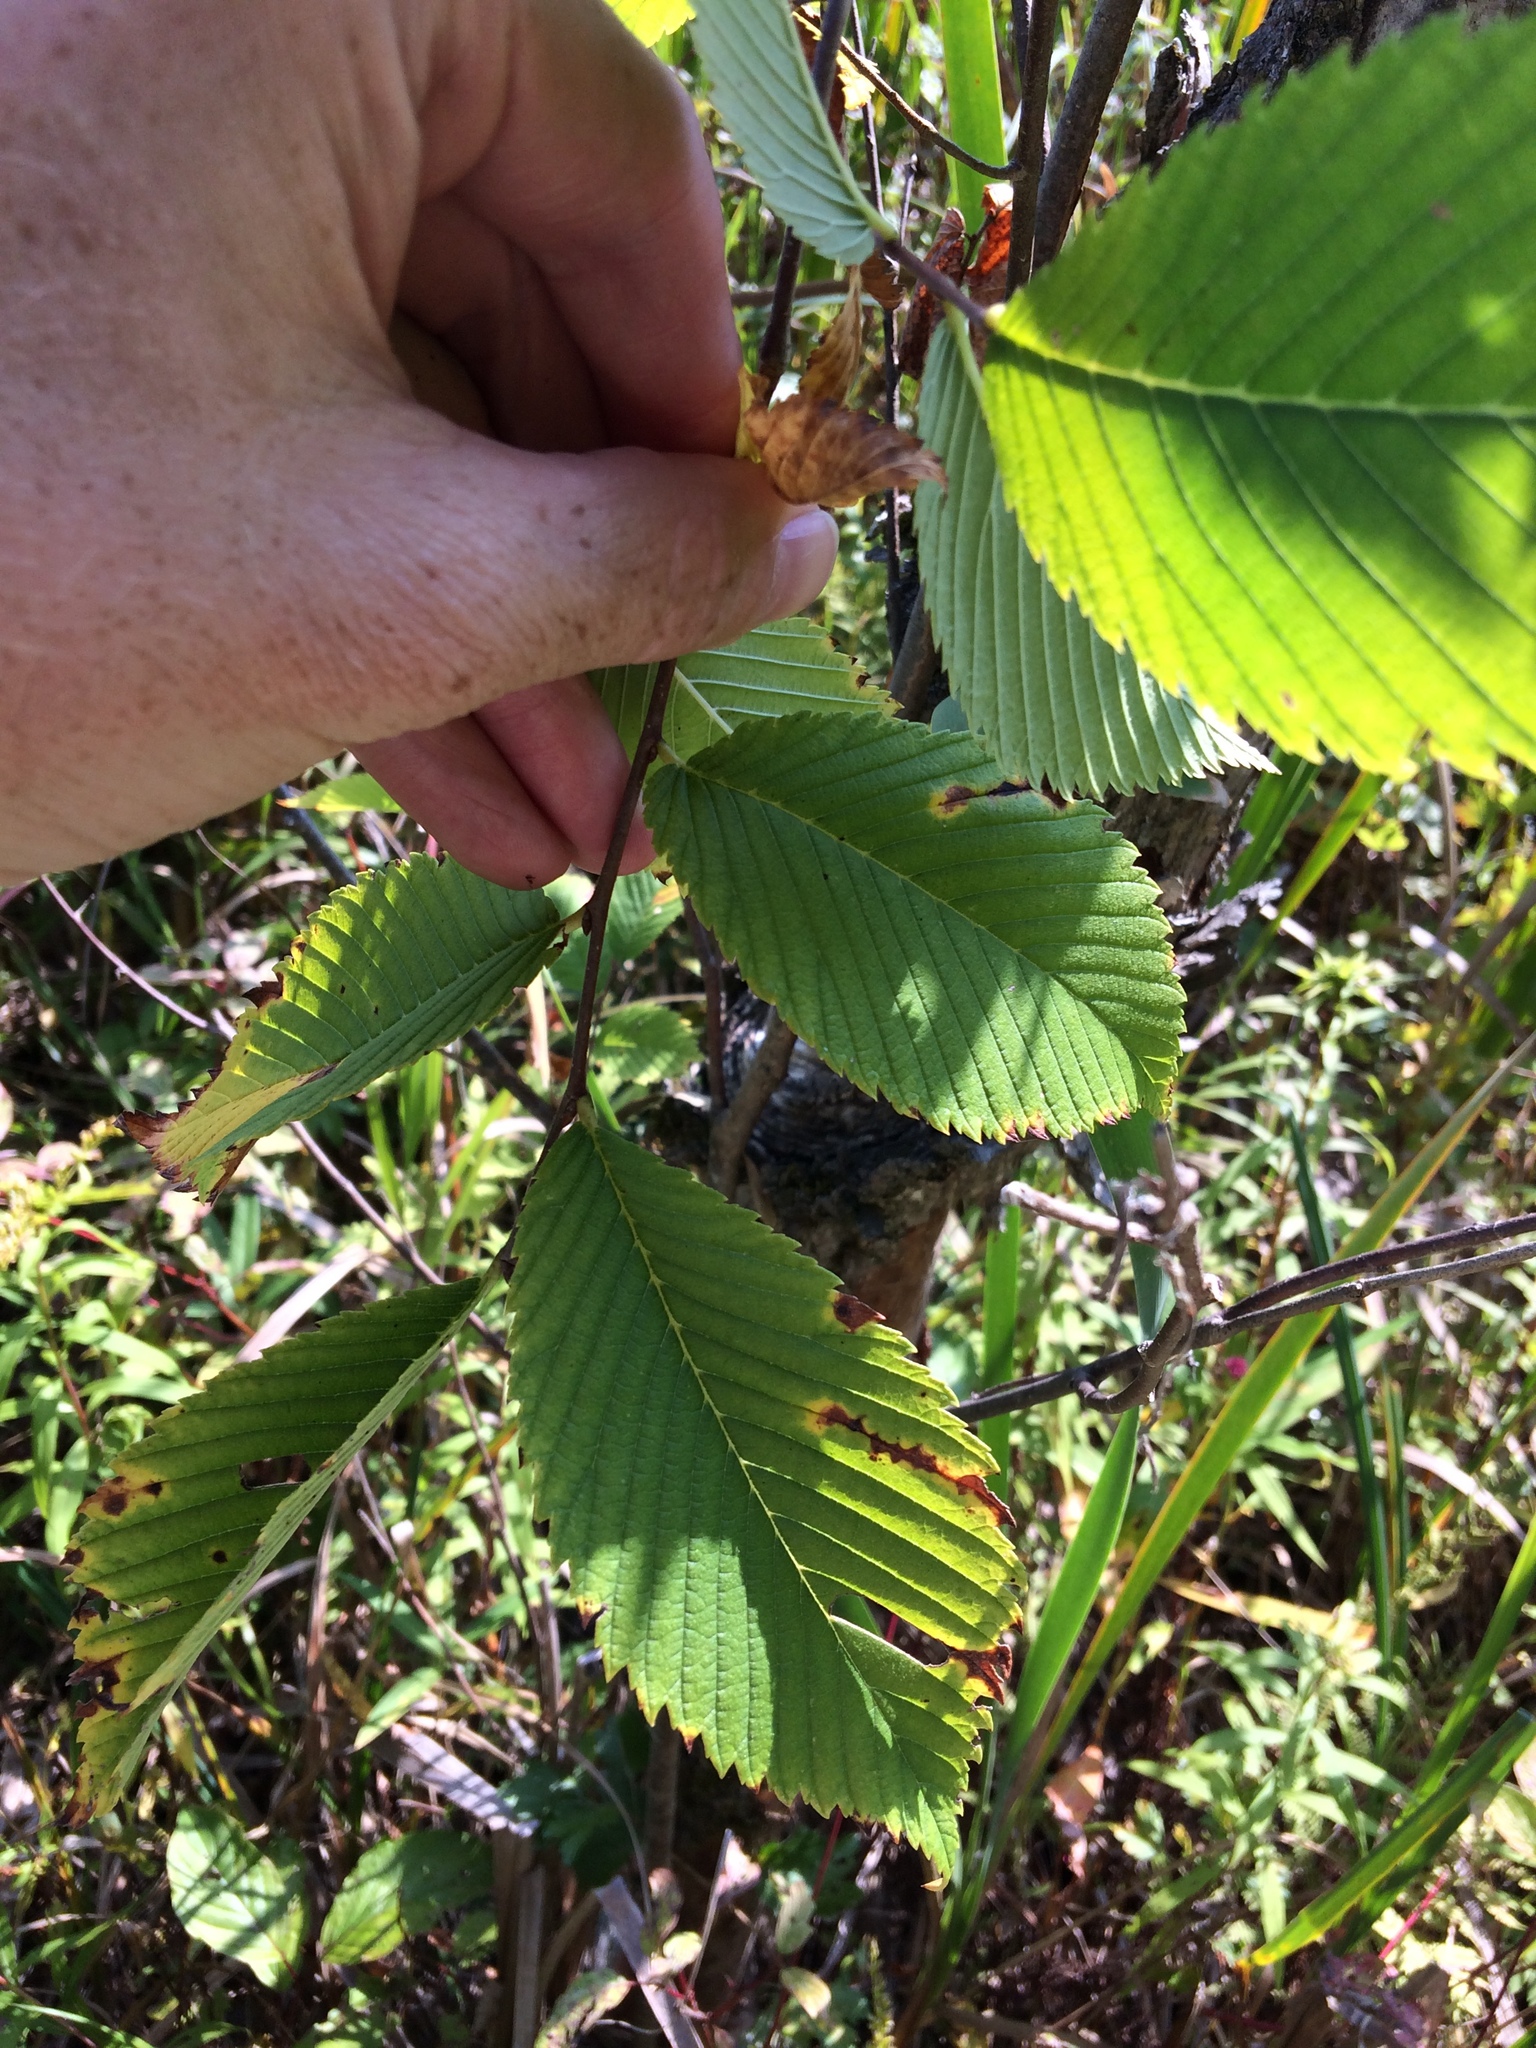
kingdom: Plantae
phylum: Tracheophyta
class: Magnoliopsida
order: Rosales
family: Ulmaceae
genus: Ulmus
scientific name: Ulmus americana
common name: American elm
